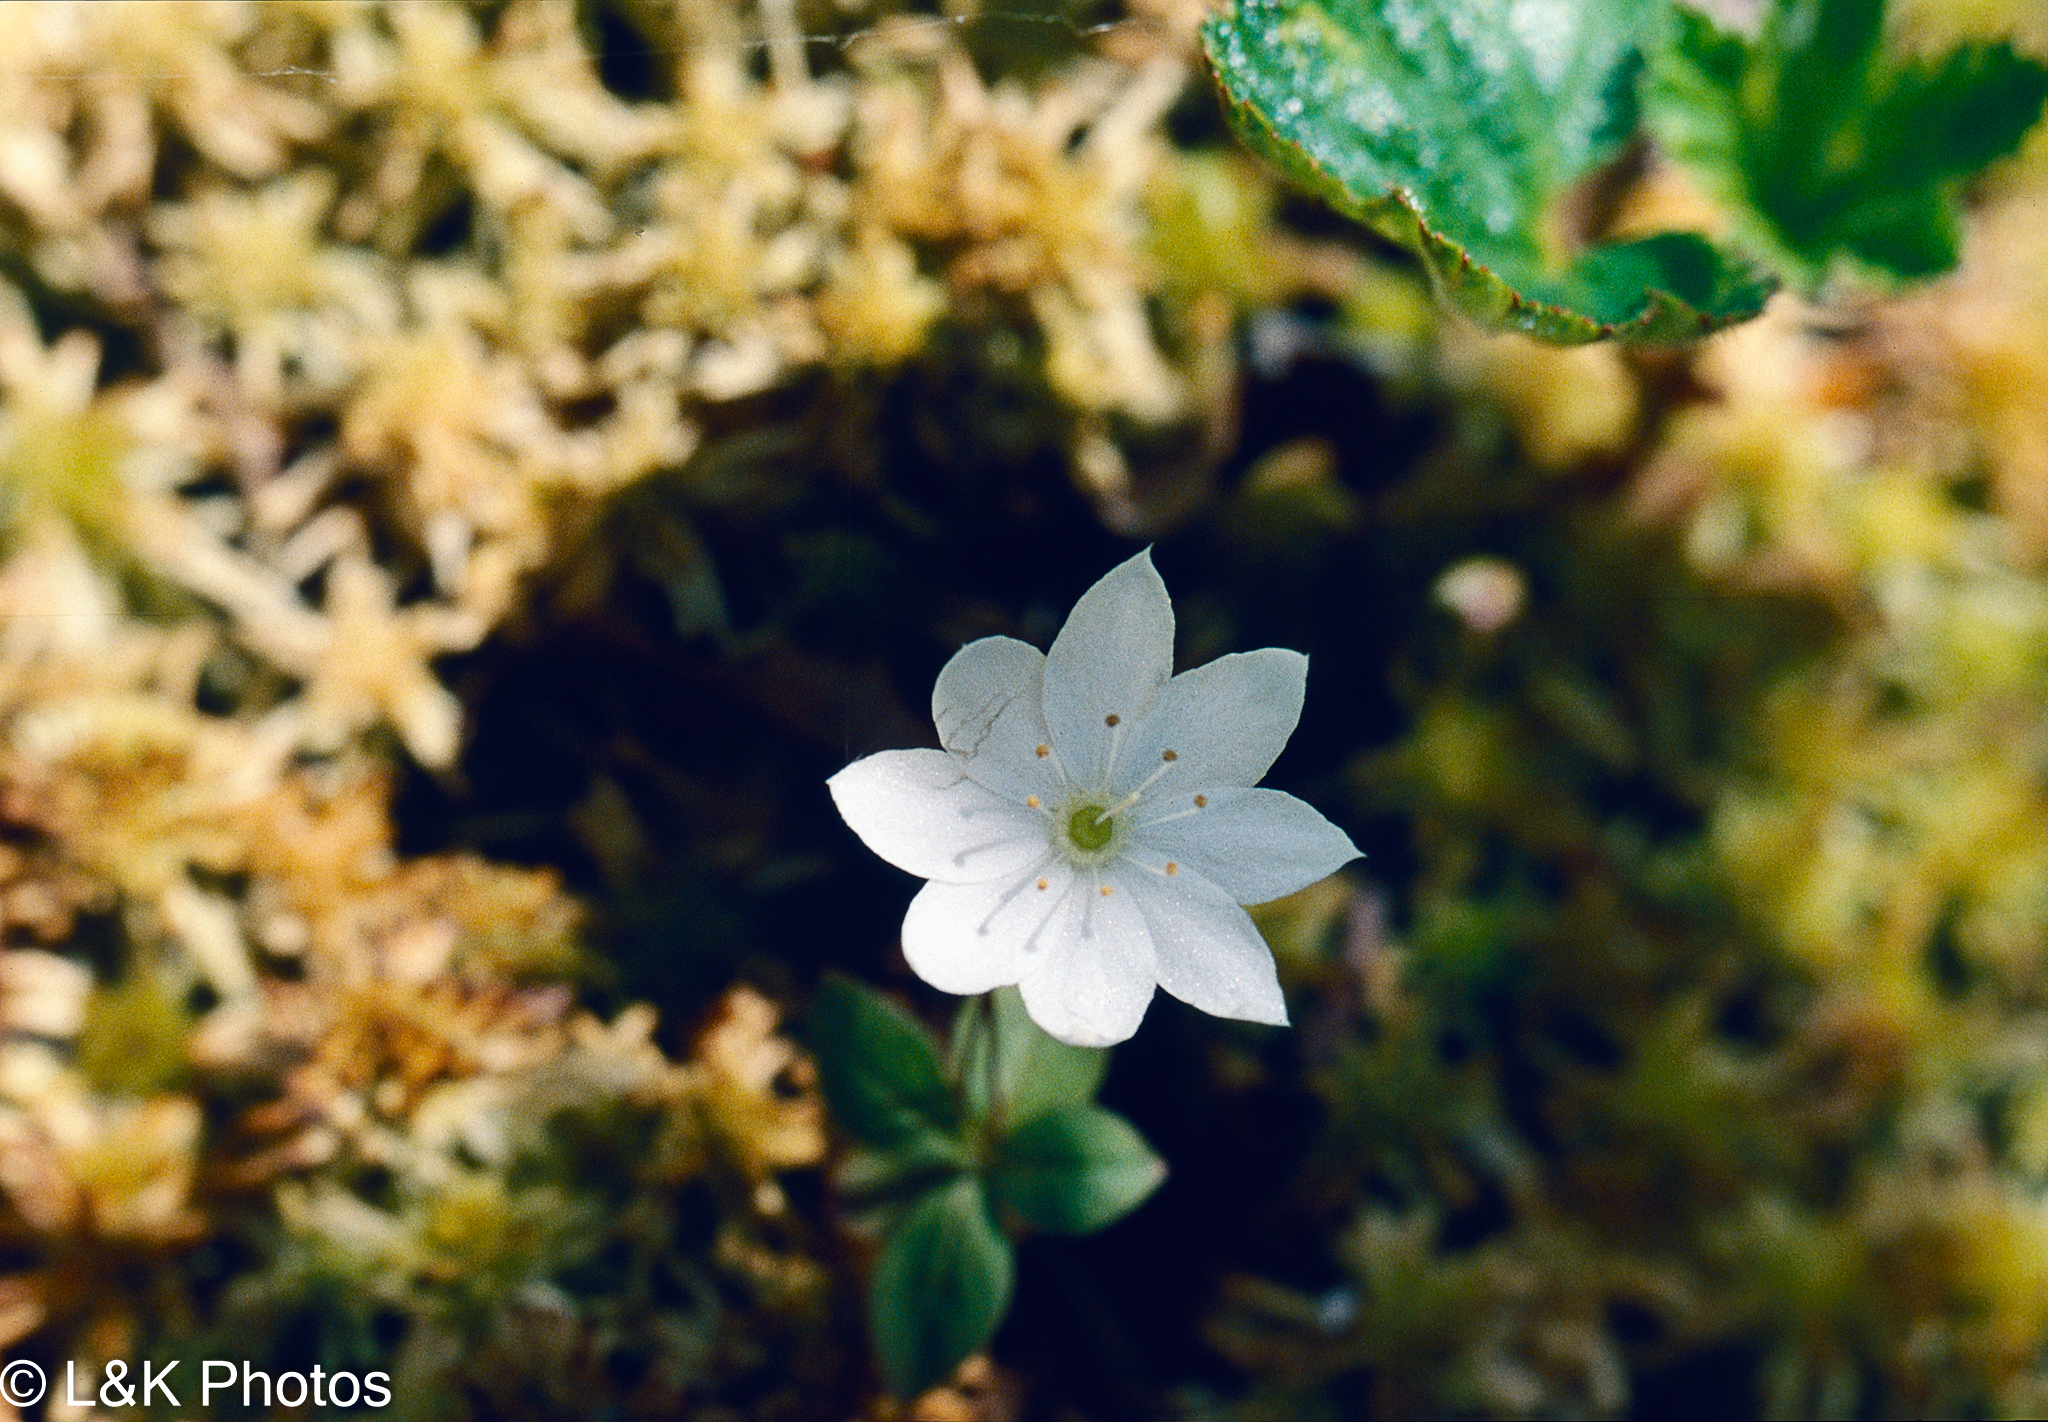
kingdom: Plantae
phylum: Tracheophyta
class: Magnoliopsida
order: Ericales
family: Primulaceae
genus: Lysimachia
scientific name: Lysimachia borealis
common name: American starflower
